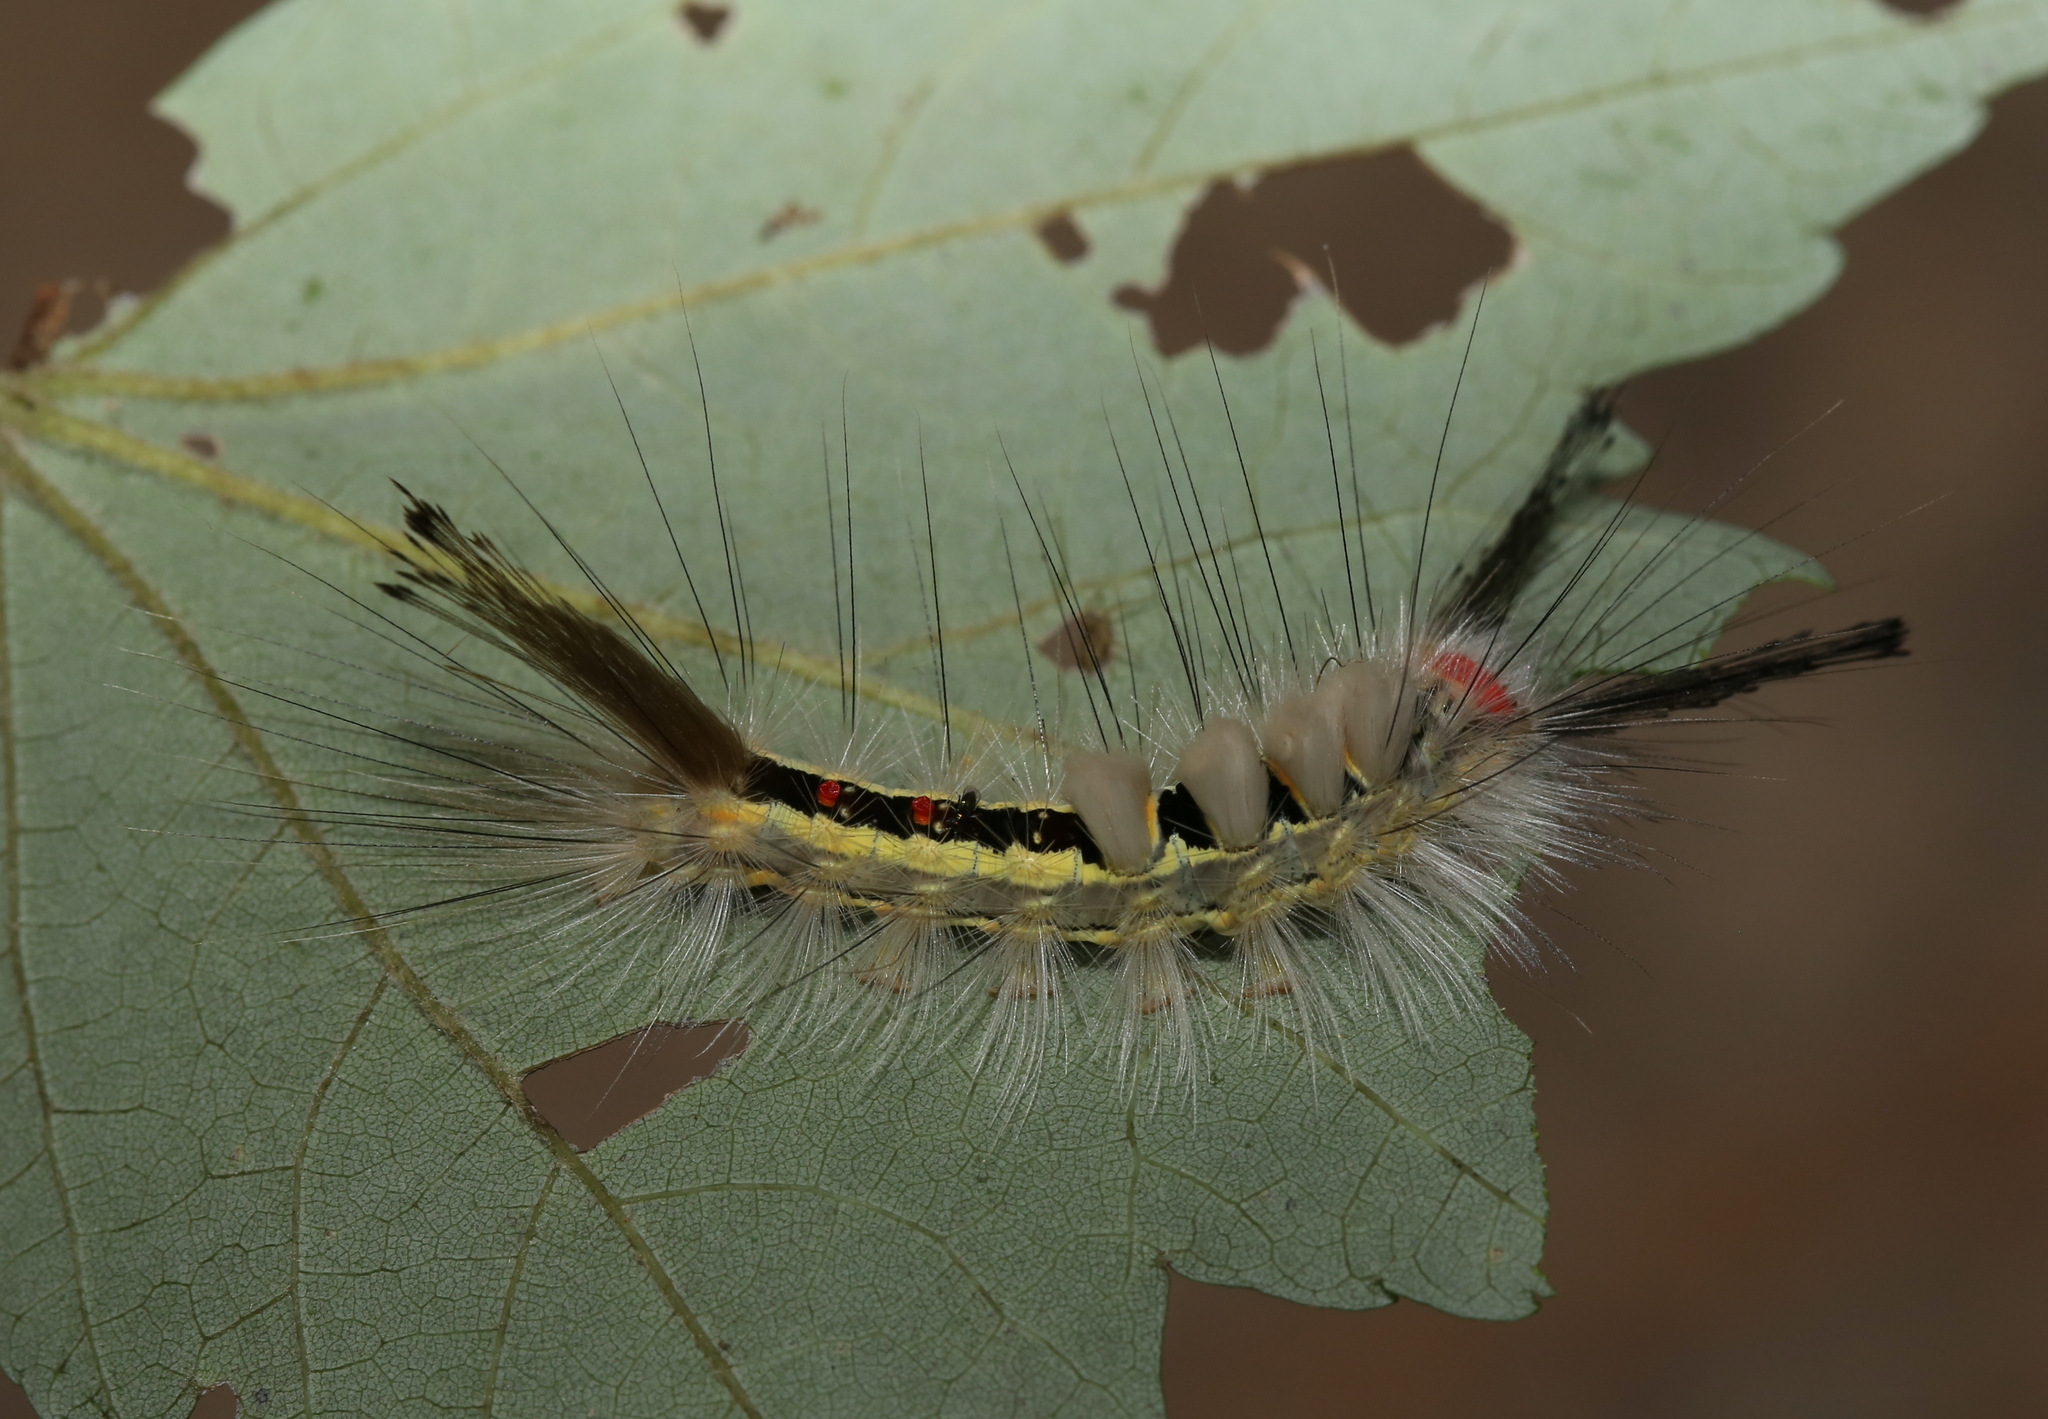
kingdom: Animalia
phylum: Arthropoda
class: Insecta
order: Lepidoptera
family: Erebidae
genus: Orgyia
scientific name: Orgyia leucostigma
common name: White-marked tussock moth
